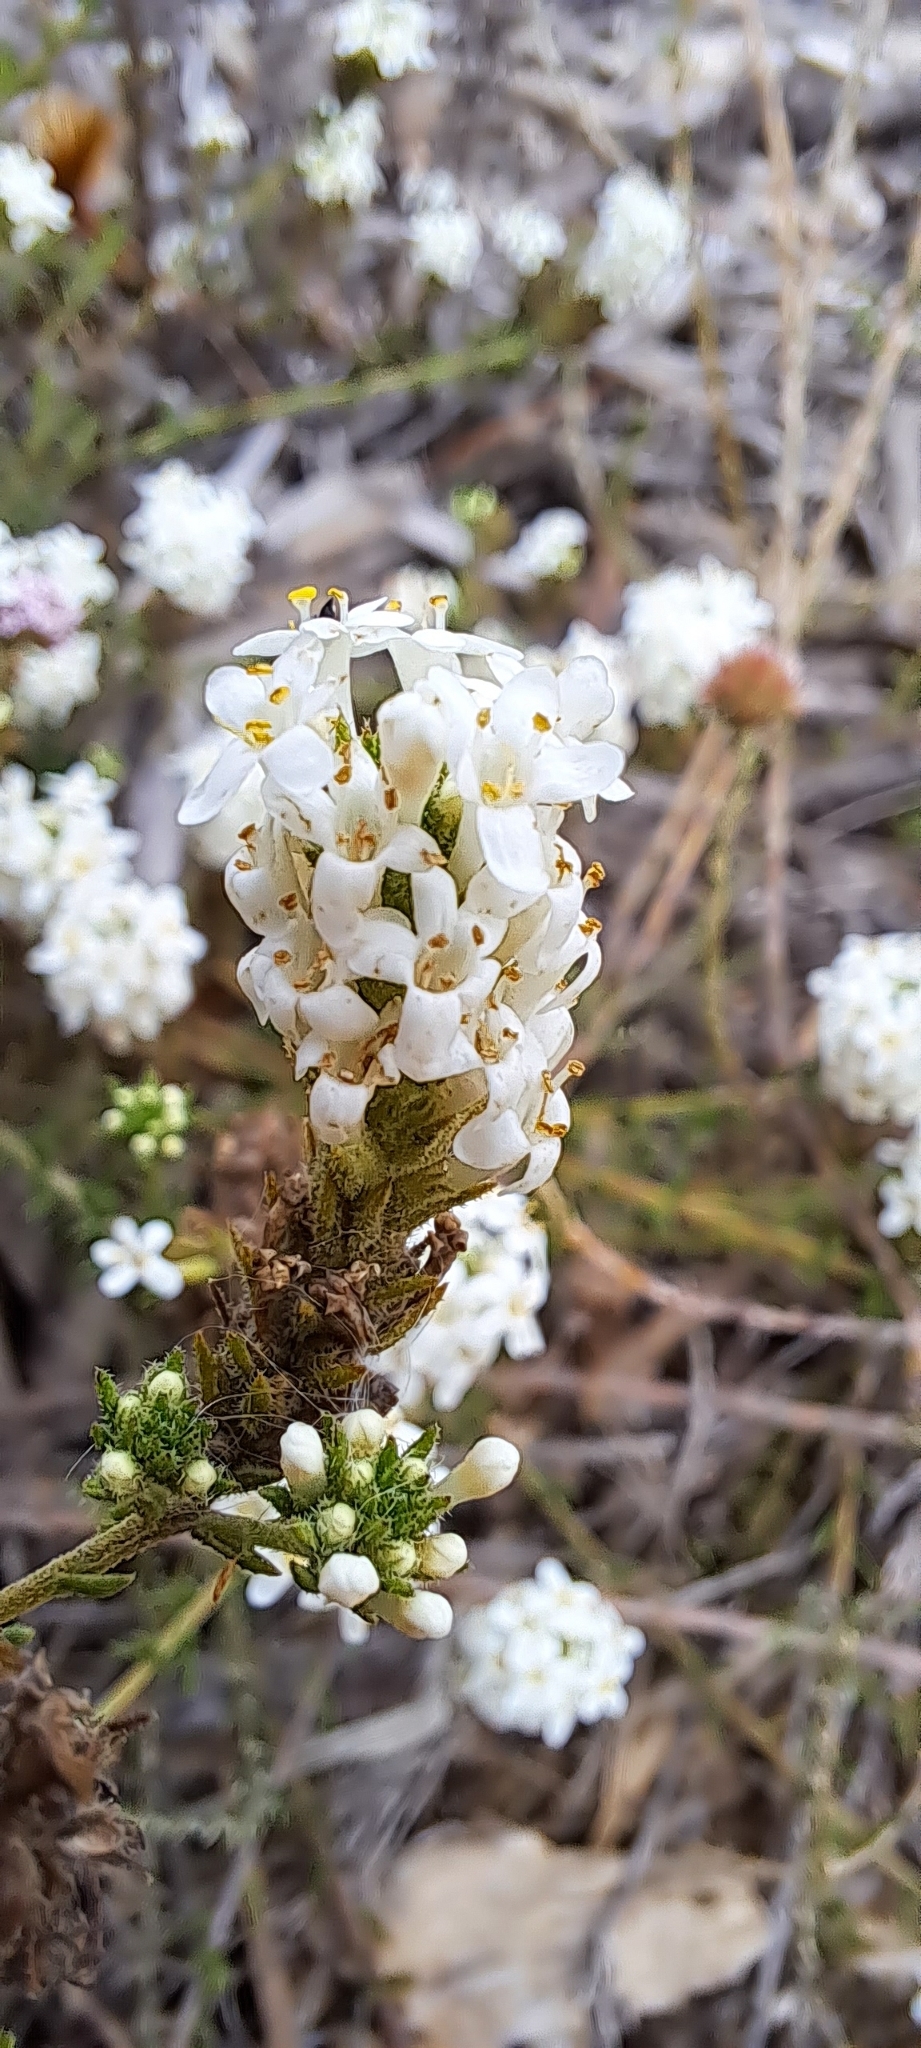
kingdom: Plantae
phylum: Tracheophyta
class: Magnoliopsida
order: Lamiales
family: Scrophulariaceae
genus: Selago
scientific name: Selago scabrida
